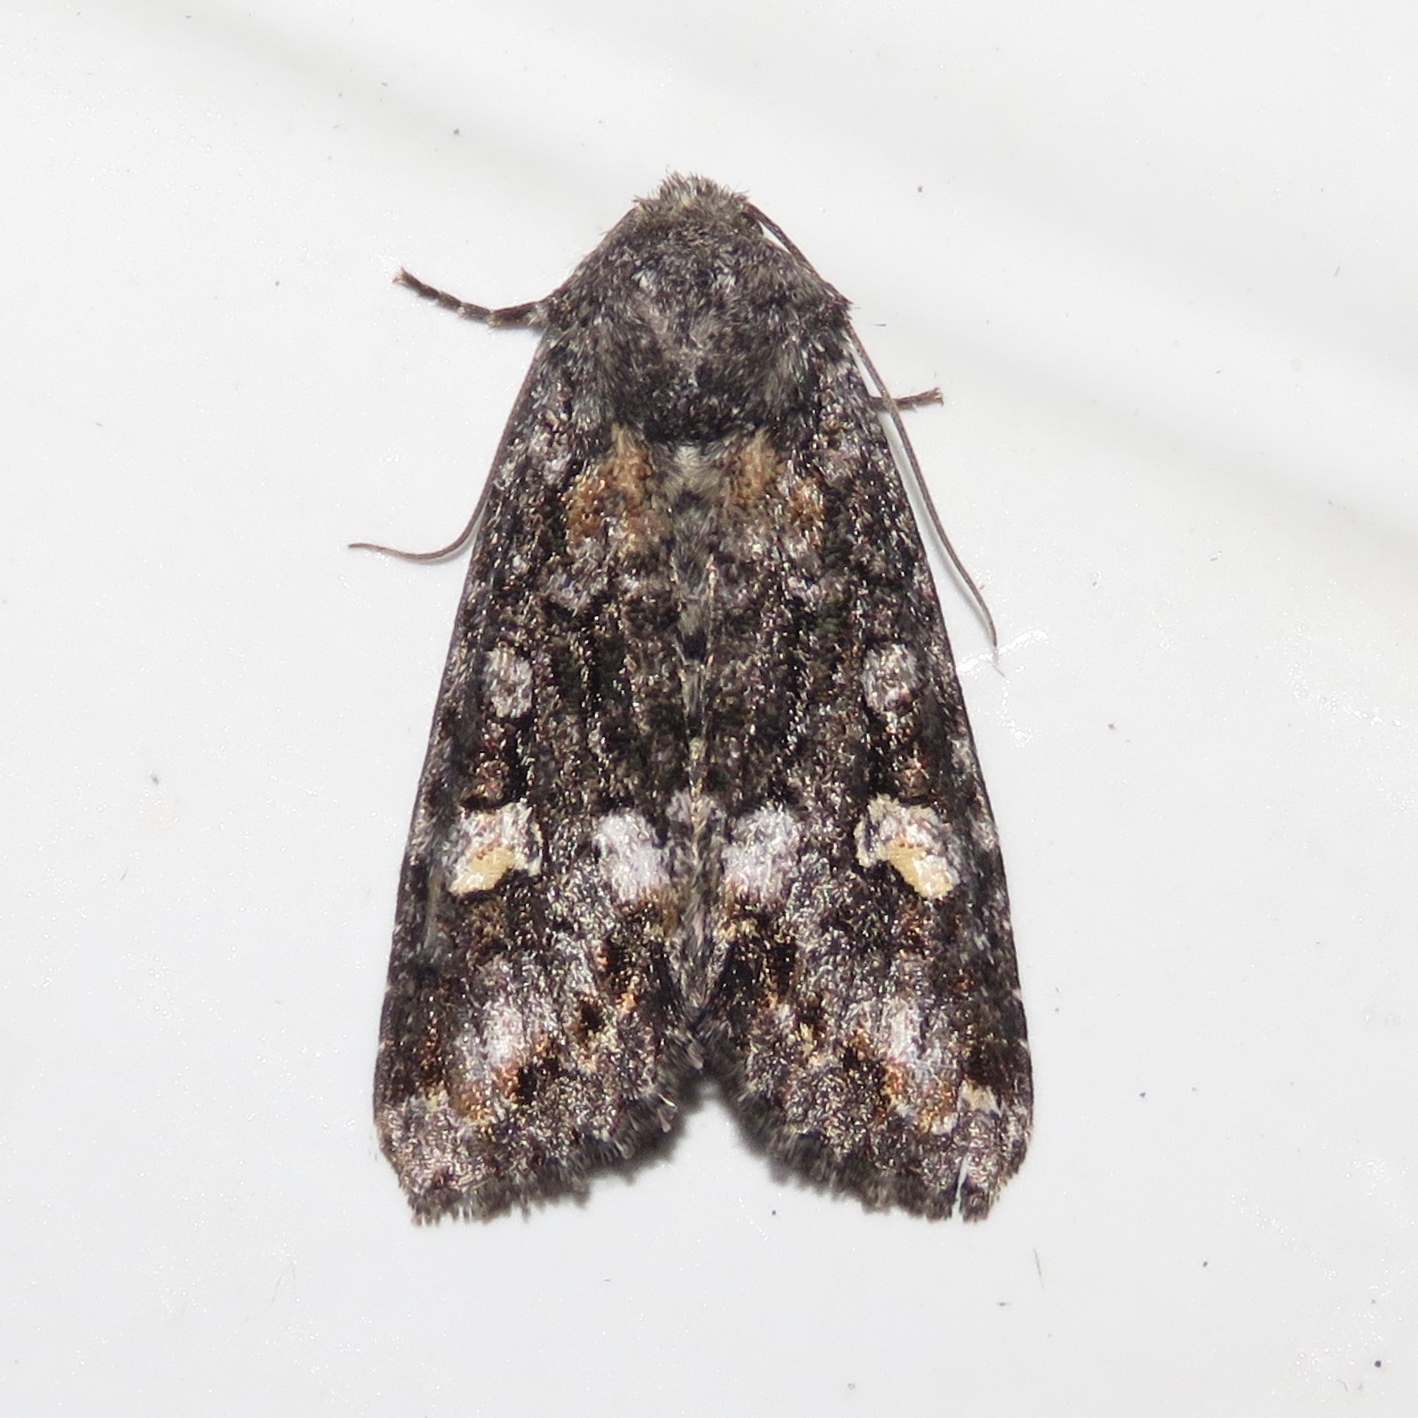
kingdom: Animalia
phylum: Arthropoda
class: Insecta
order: Lepidoptera
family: Noctuidae
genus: Spiramater
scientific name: Spiramater lutra
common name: Otter spiramater moth
